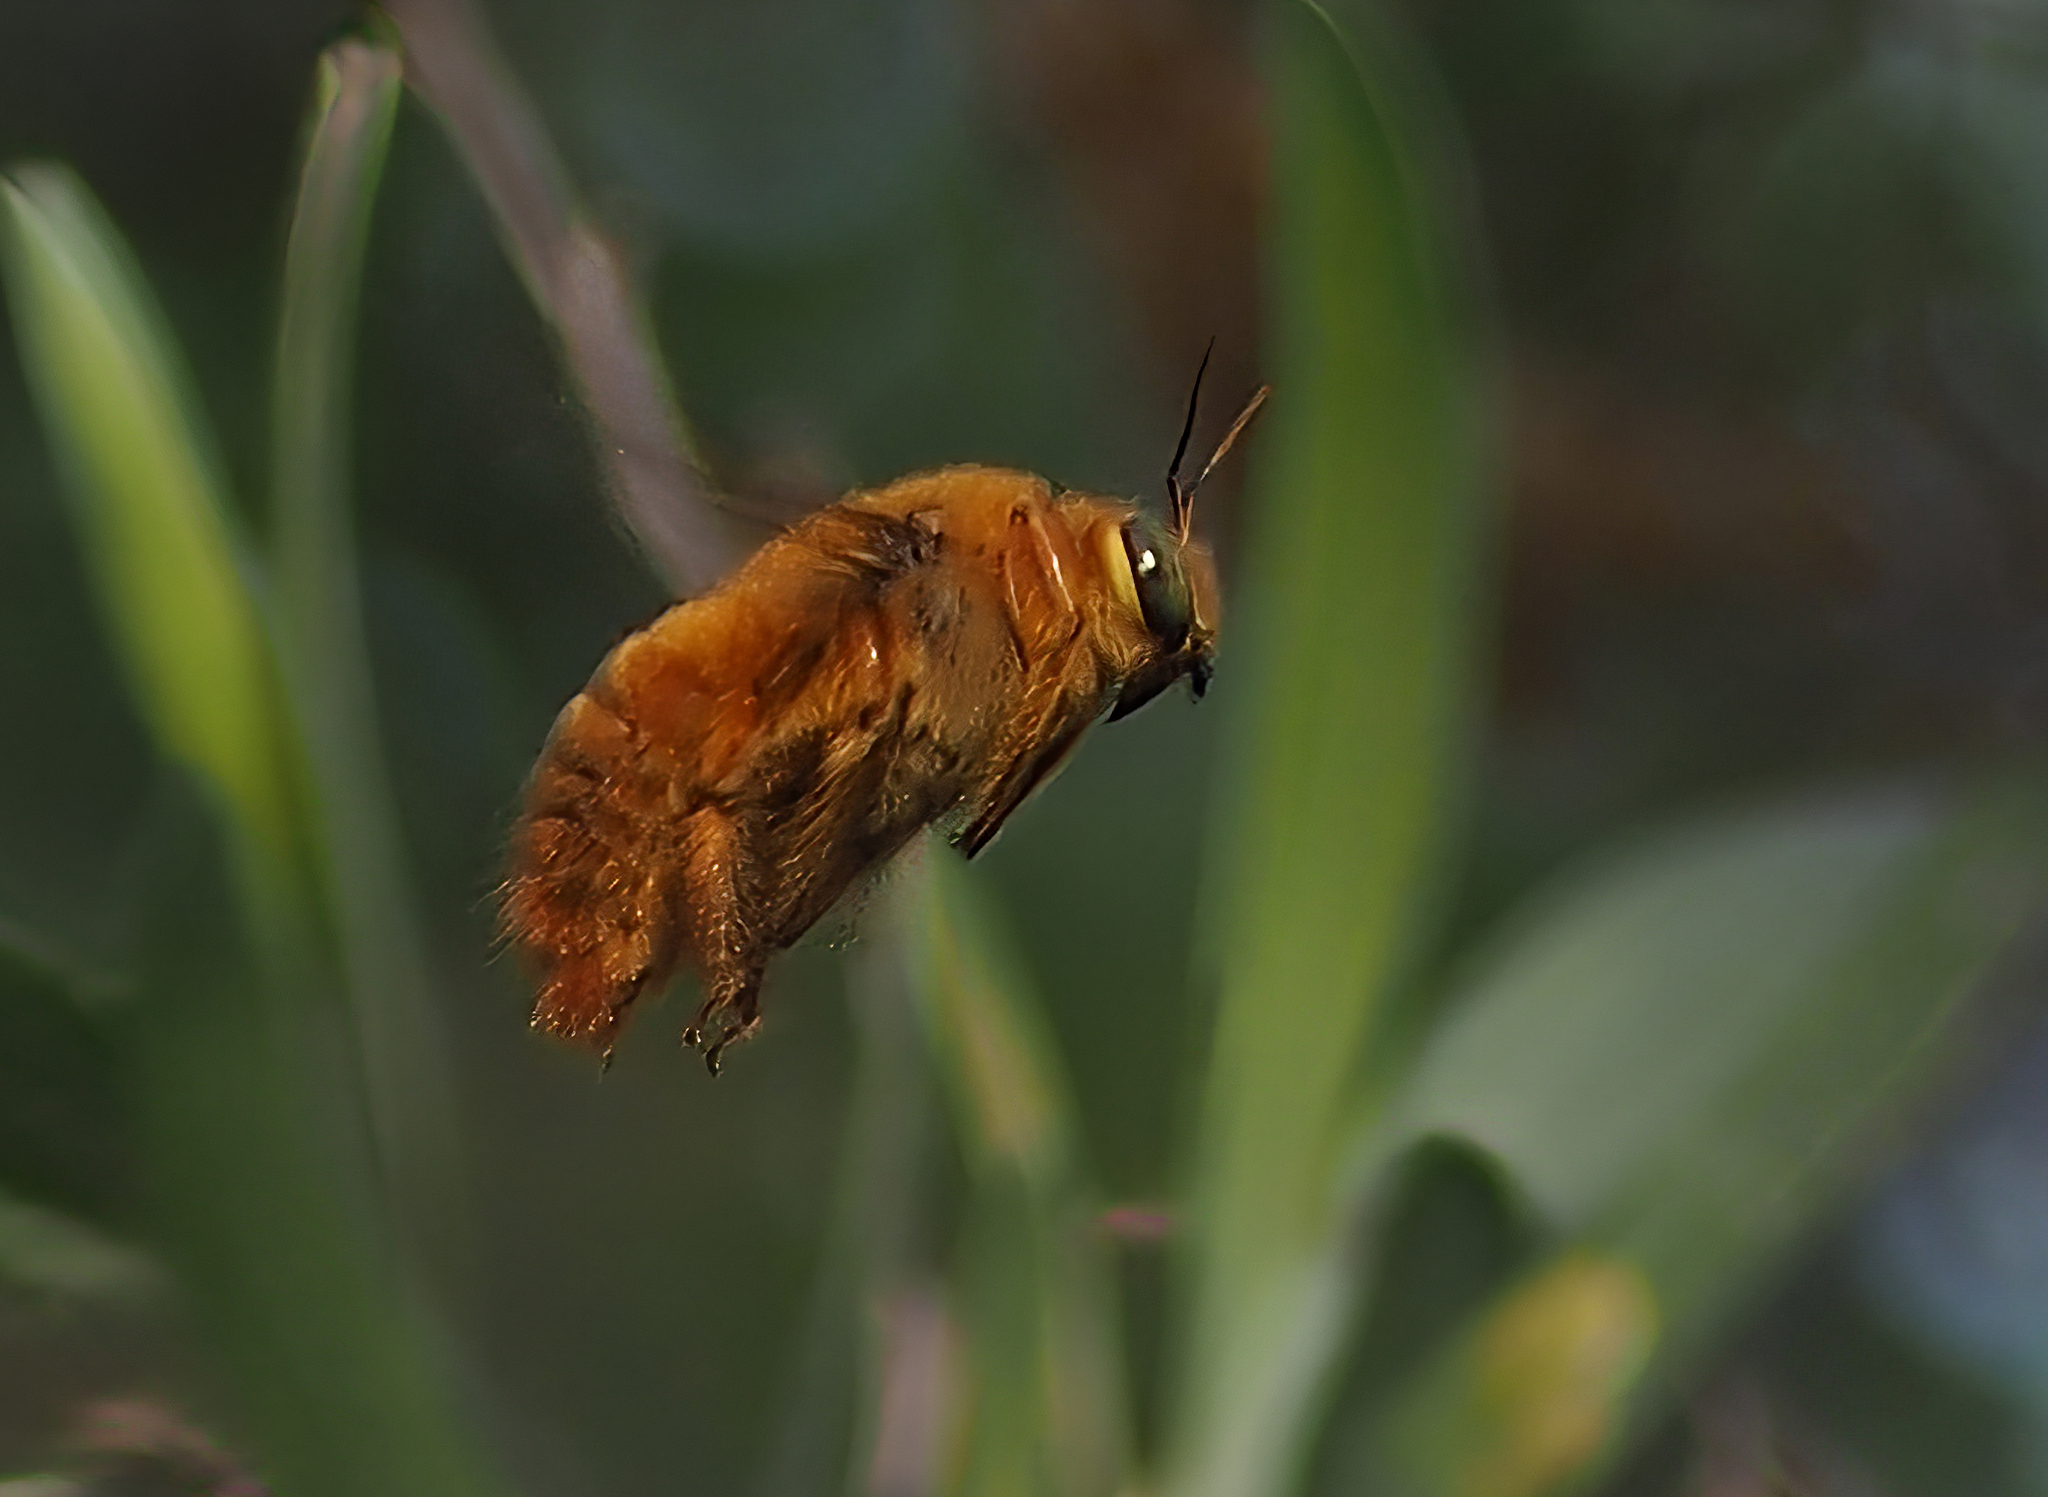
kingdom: Animalia
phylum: Arthropoda
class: Insecta
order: Hymenoptera
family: Apidae
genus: Xylocopa
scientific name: Xylocopa augusti
